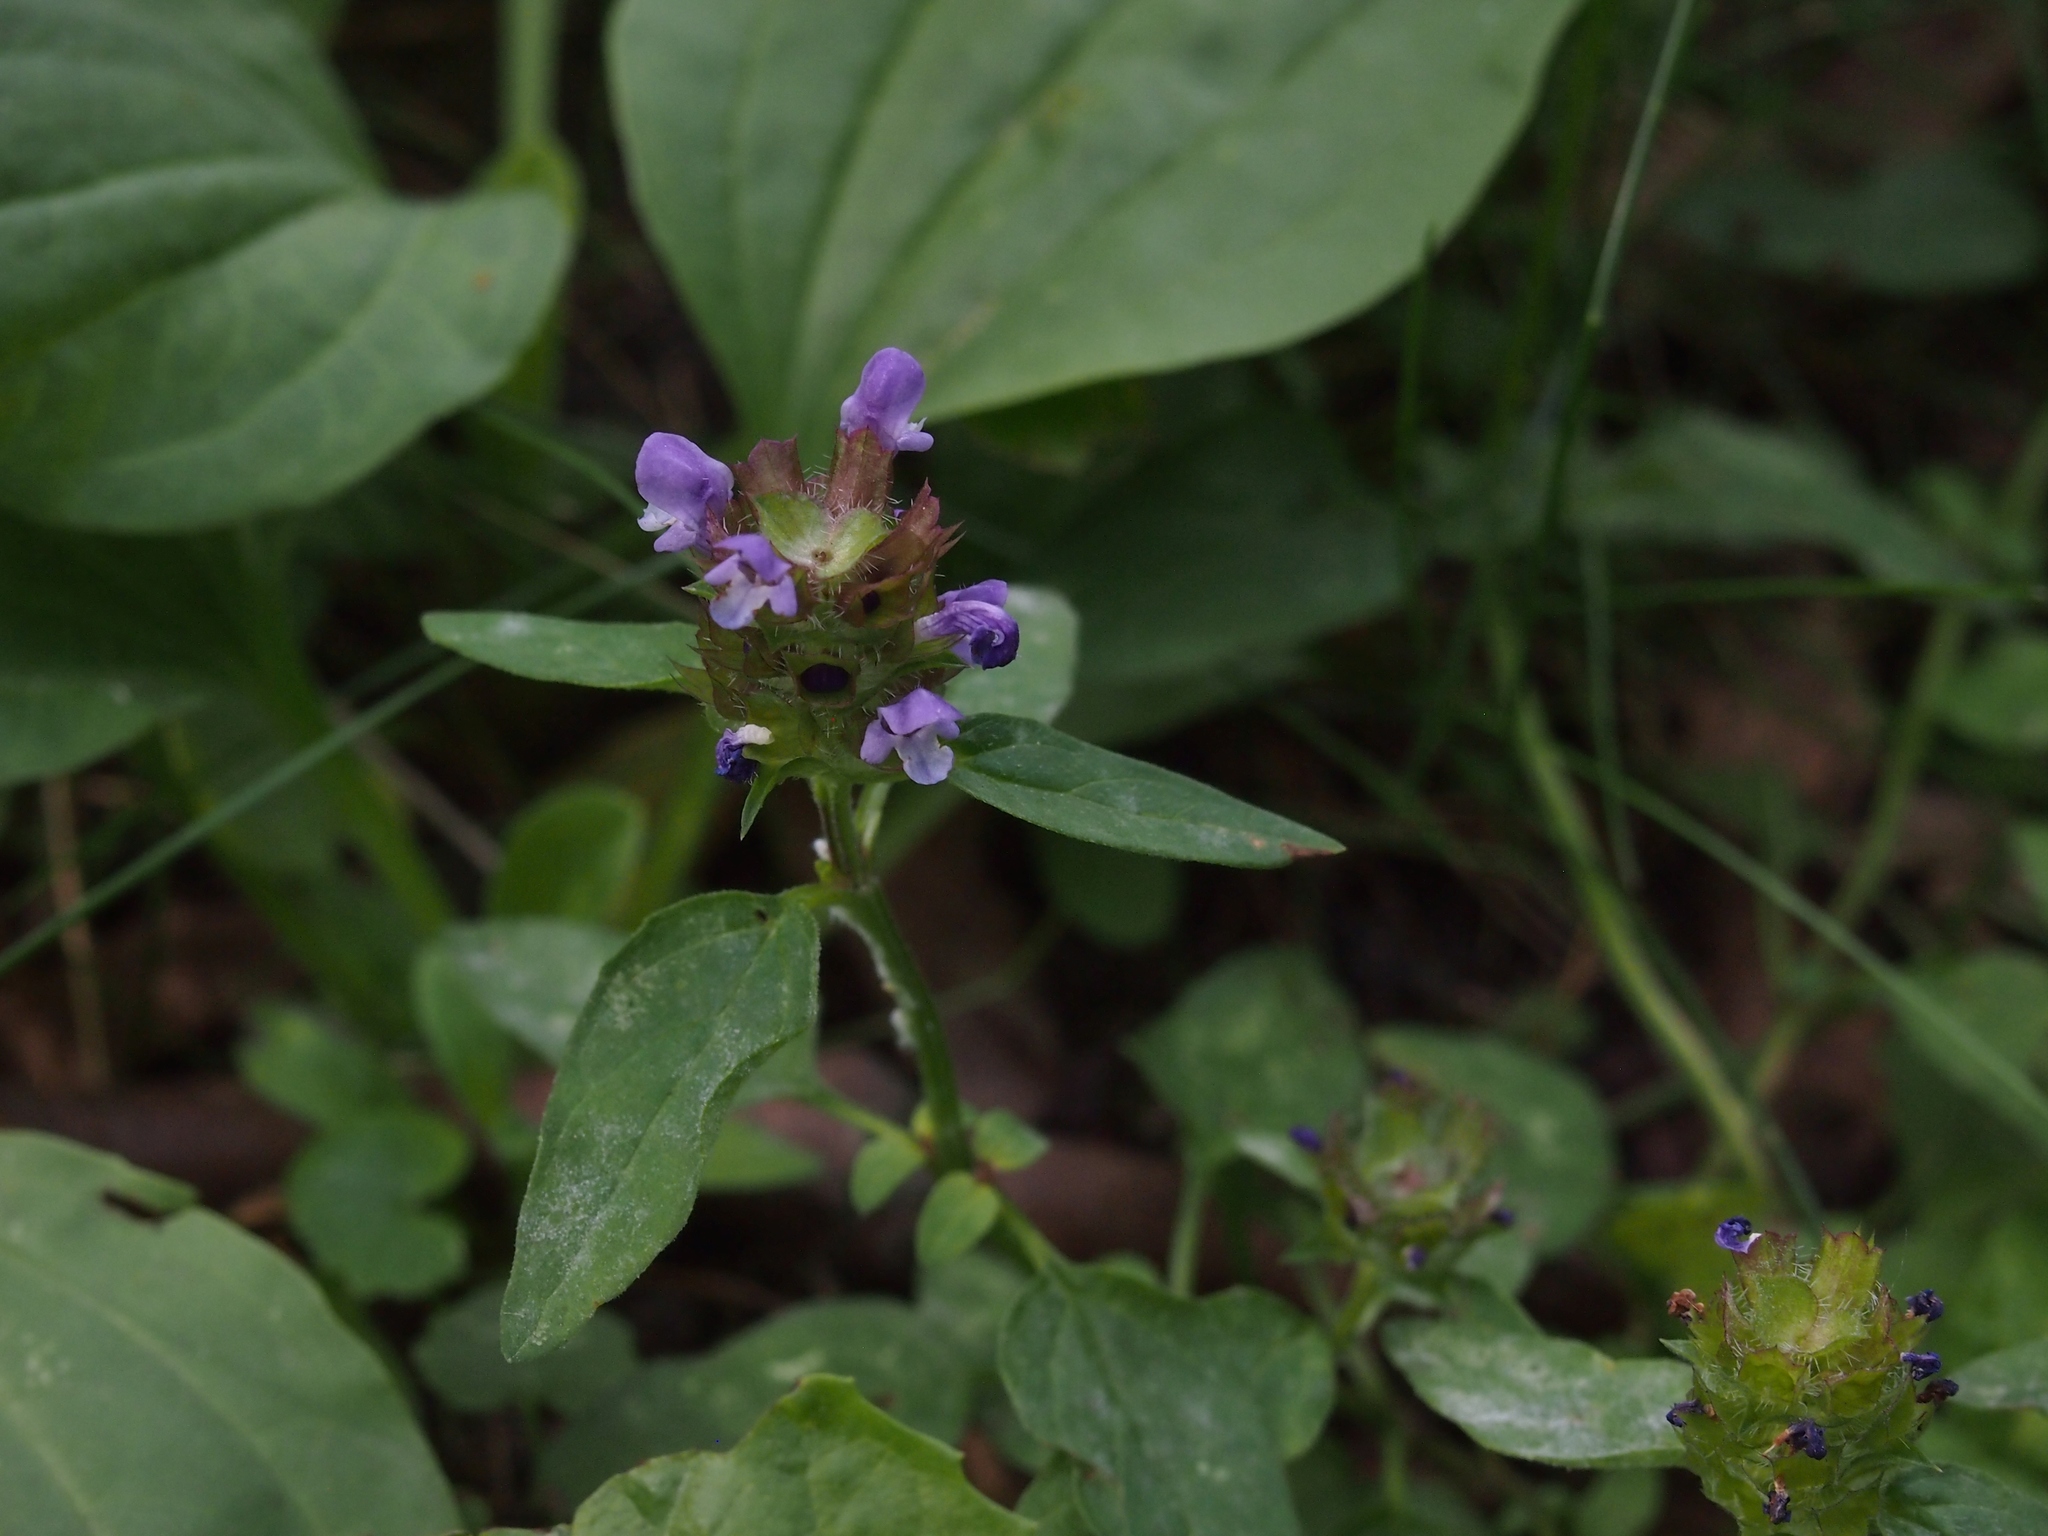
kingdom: Plantae
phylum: Tracheophyta
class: Magnoliopsida
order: Lamiales
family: Lamiaceae
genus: Prunella
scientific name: Prunella vulgaris
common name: Heal-all
